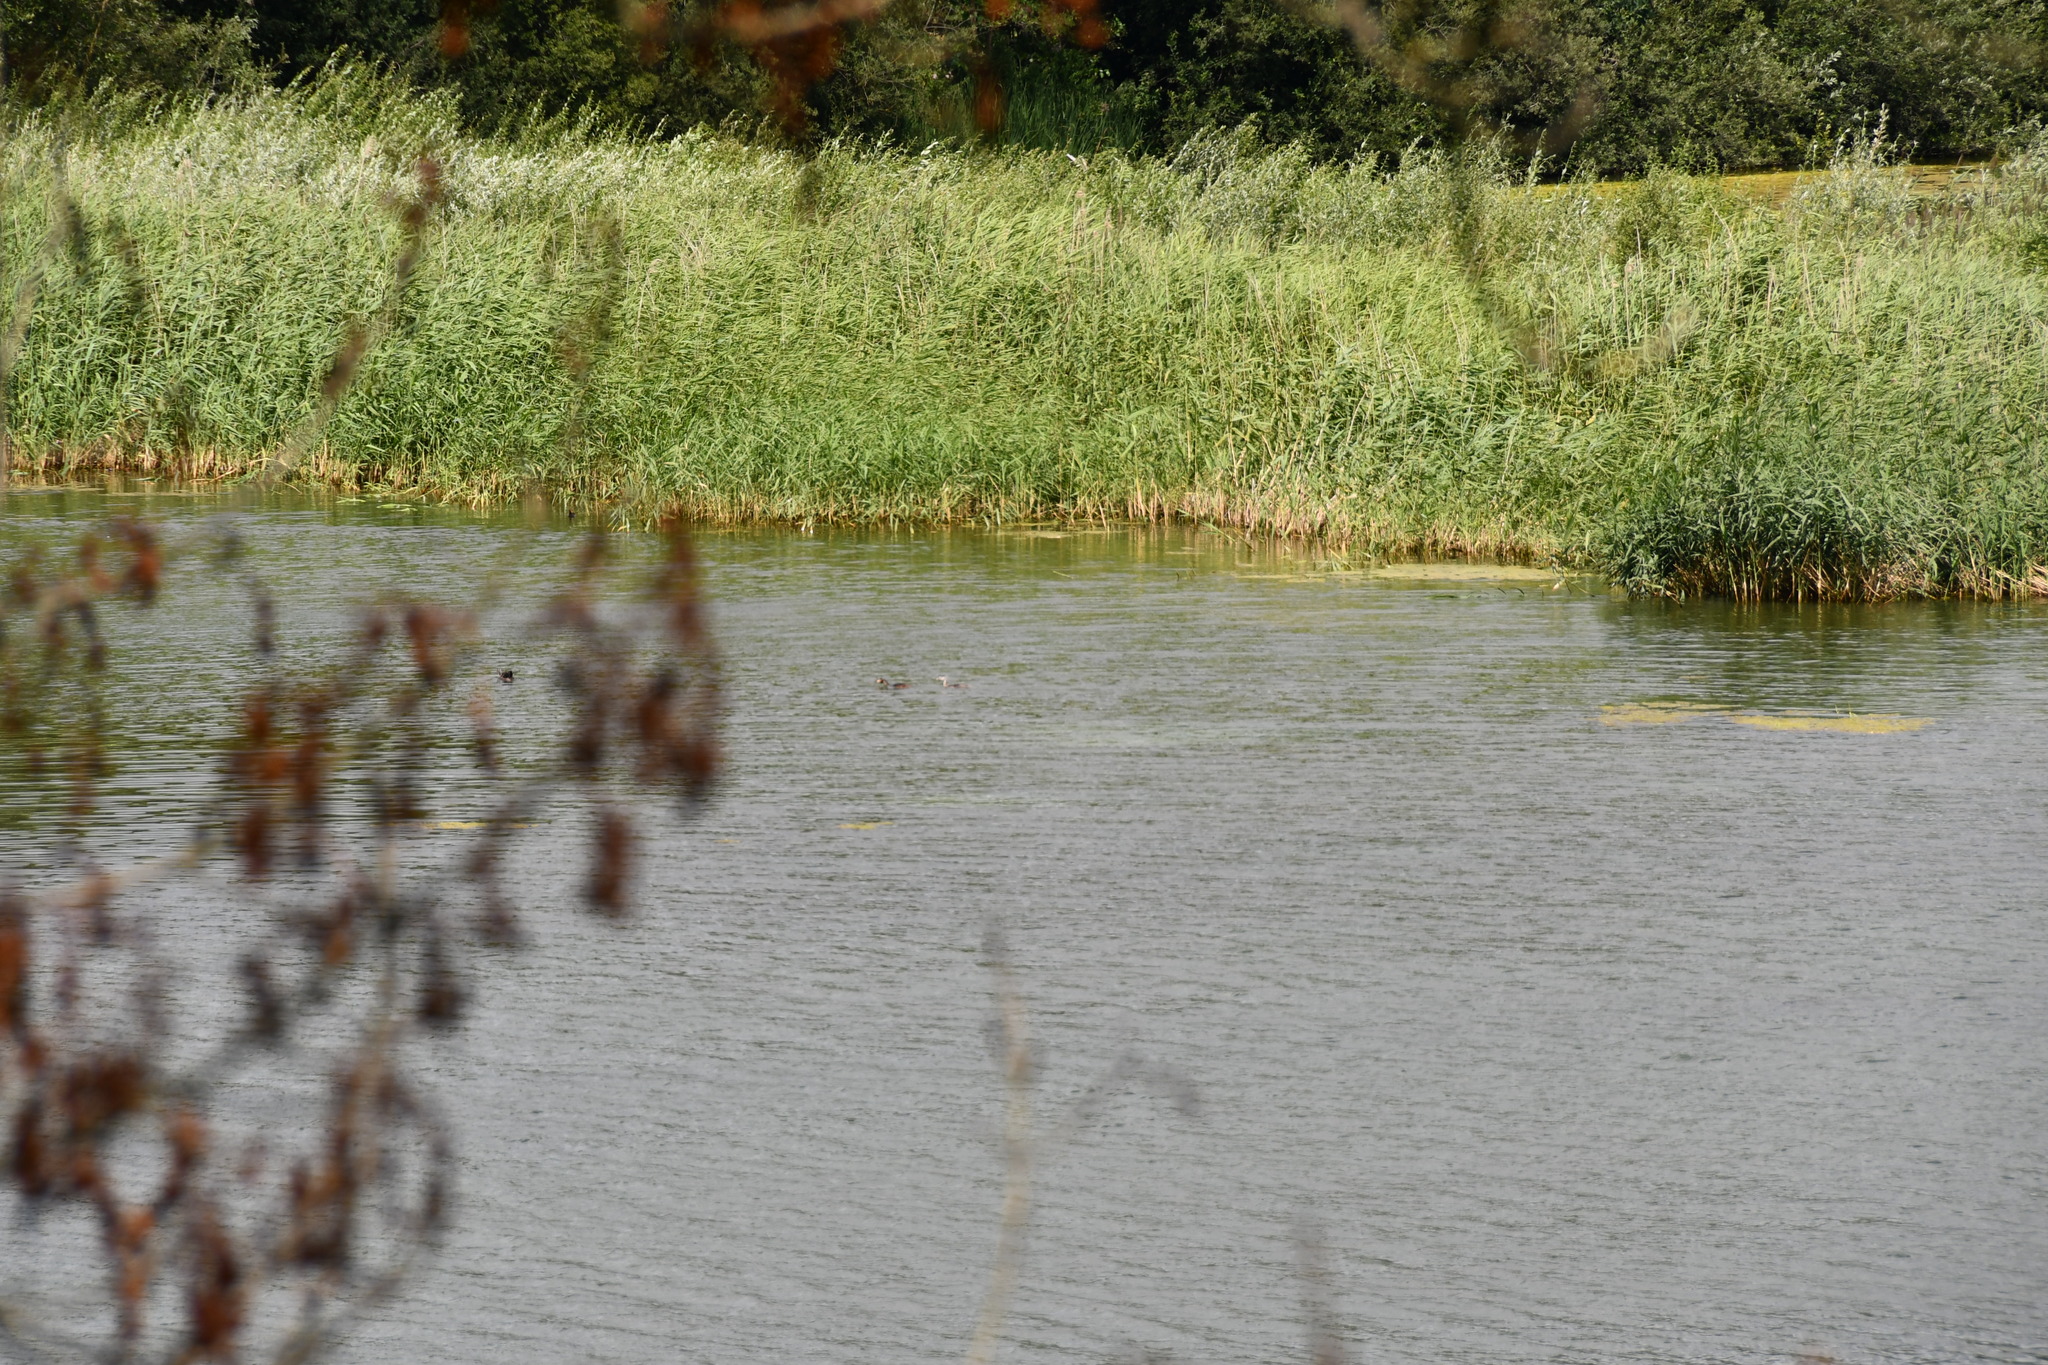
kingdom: Animalia
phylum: Chordata
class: Aves
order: Podicipediformes
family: Podicipedidae
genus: Podiceps
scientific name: Podiceps cristatus
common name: Great crested grebe
